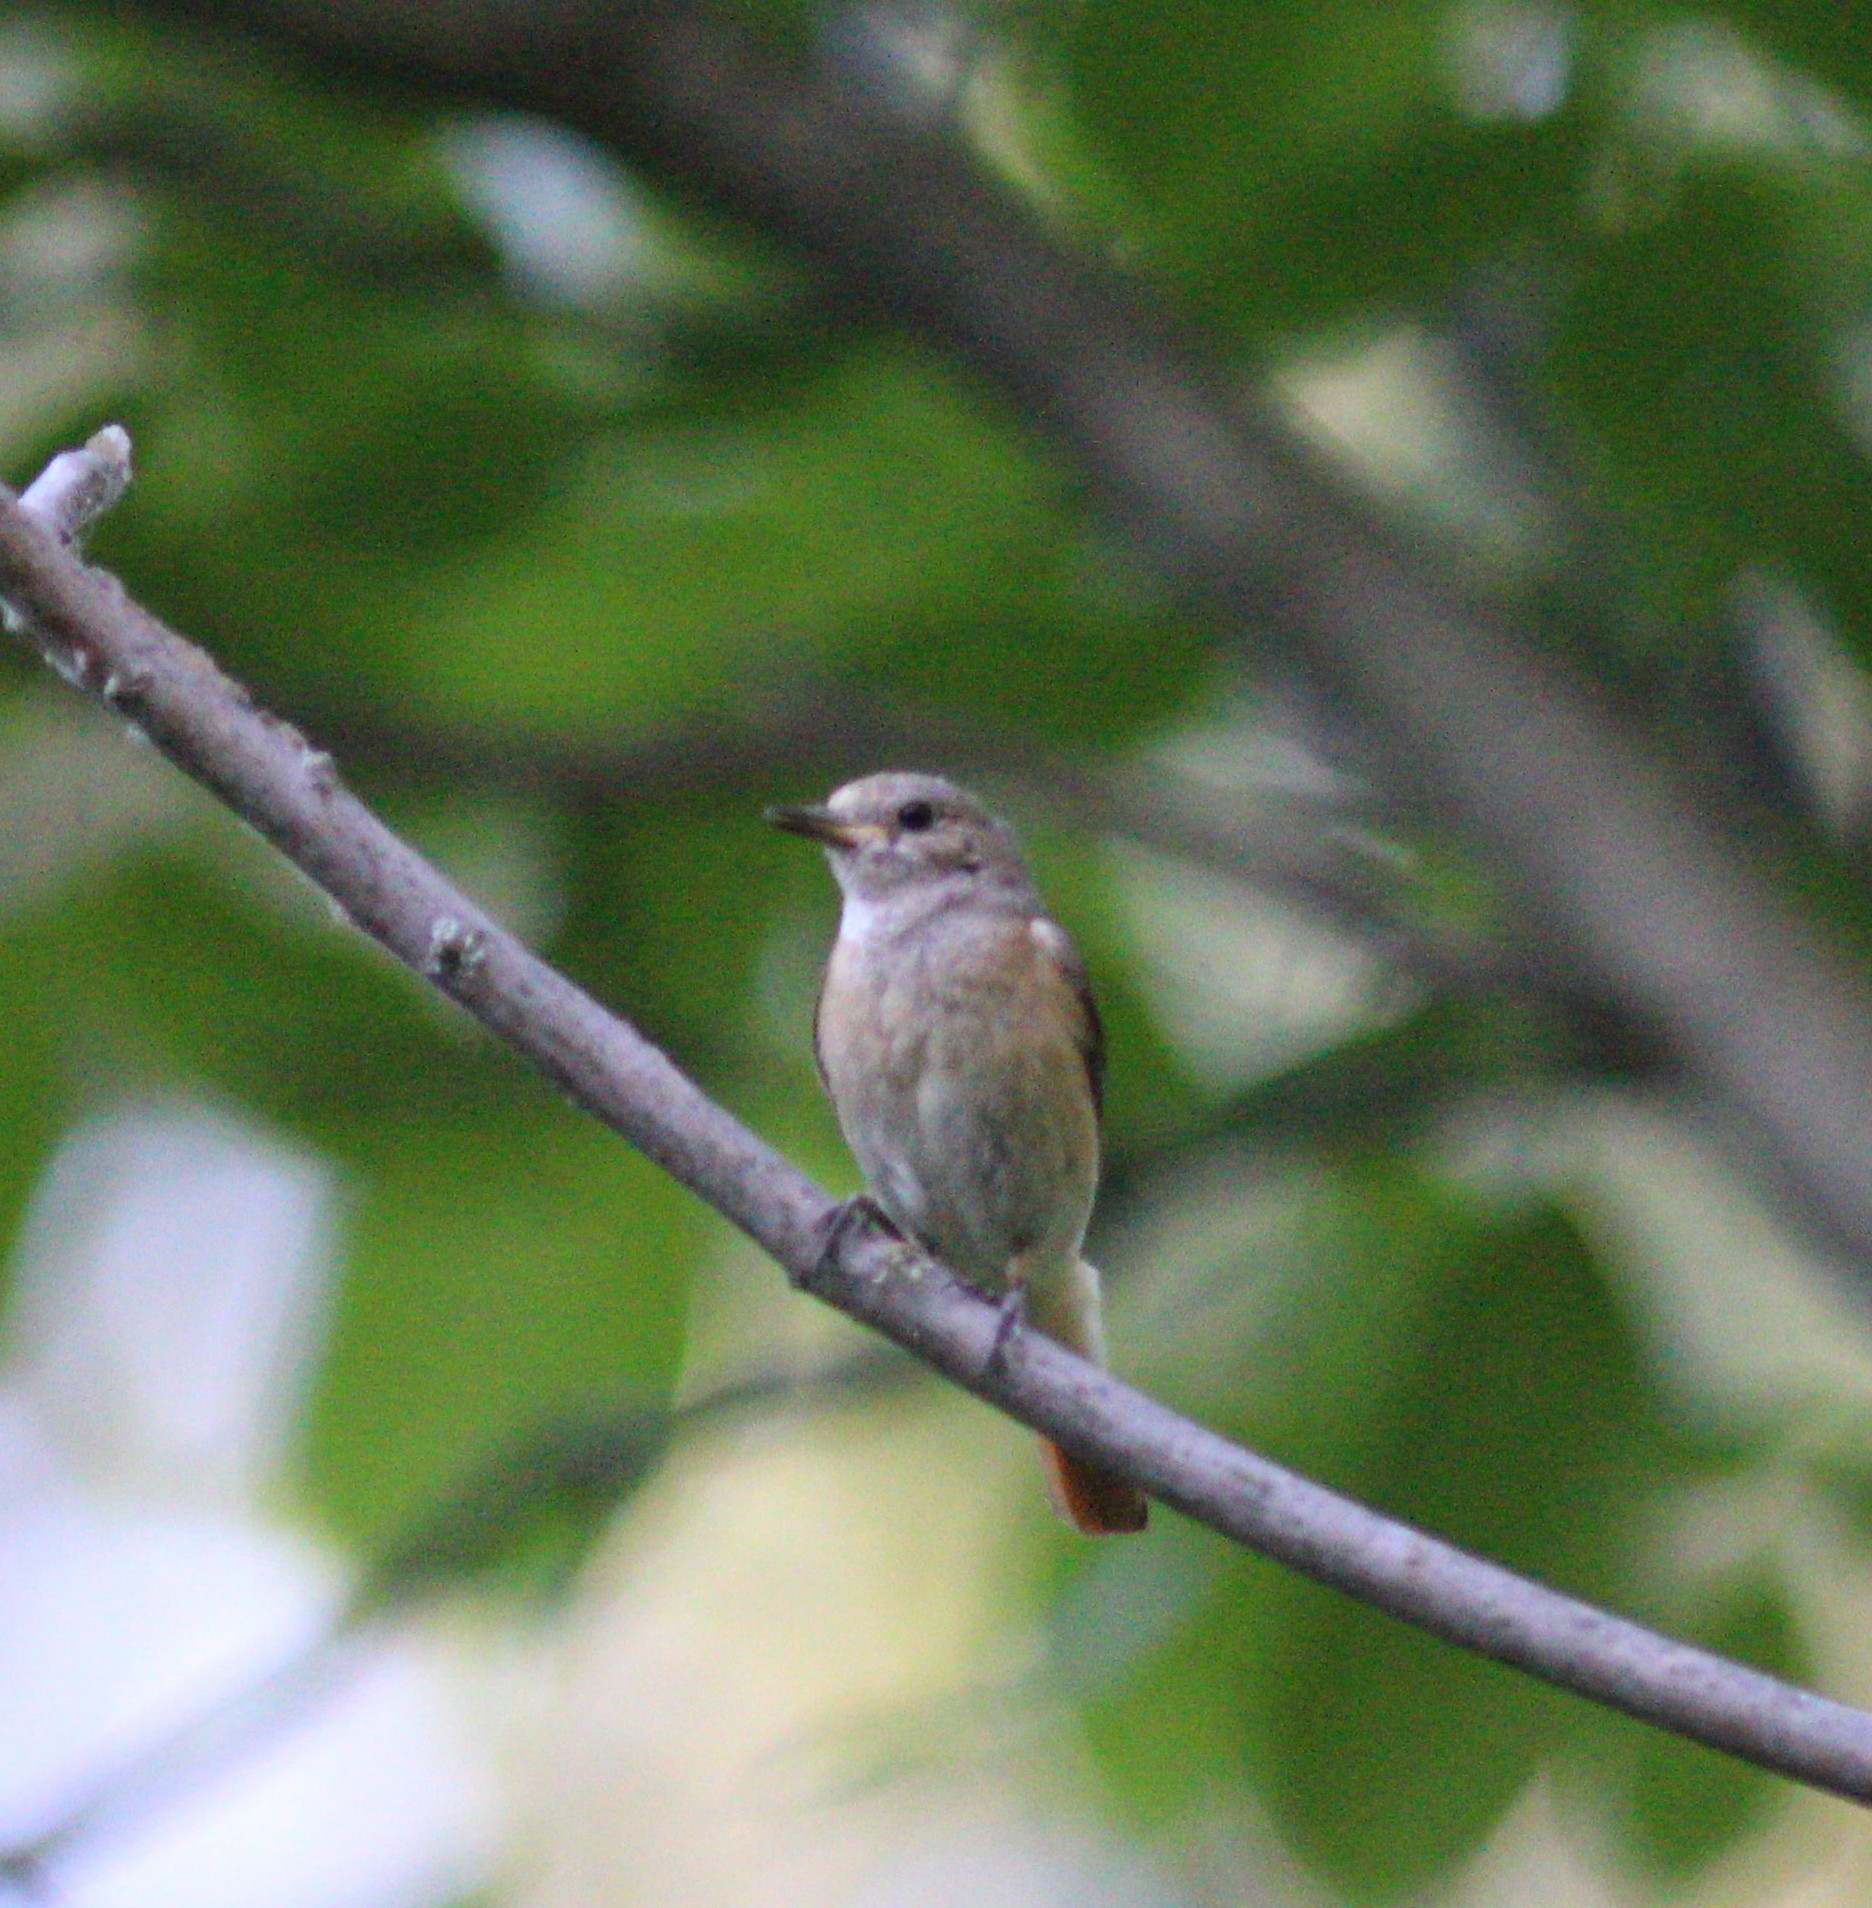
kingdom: Animalia
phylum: Chordata
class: Aves
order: Passeriformes
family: Muscicapidae
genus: Phoenicurus
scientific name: Phoenicurus phoenicurus
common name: Common redstart
